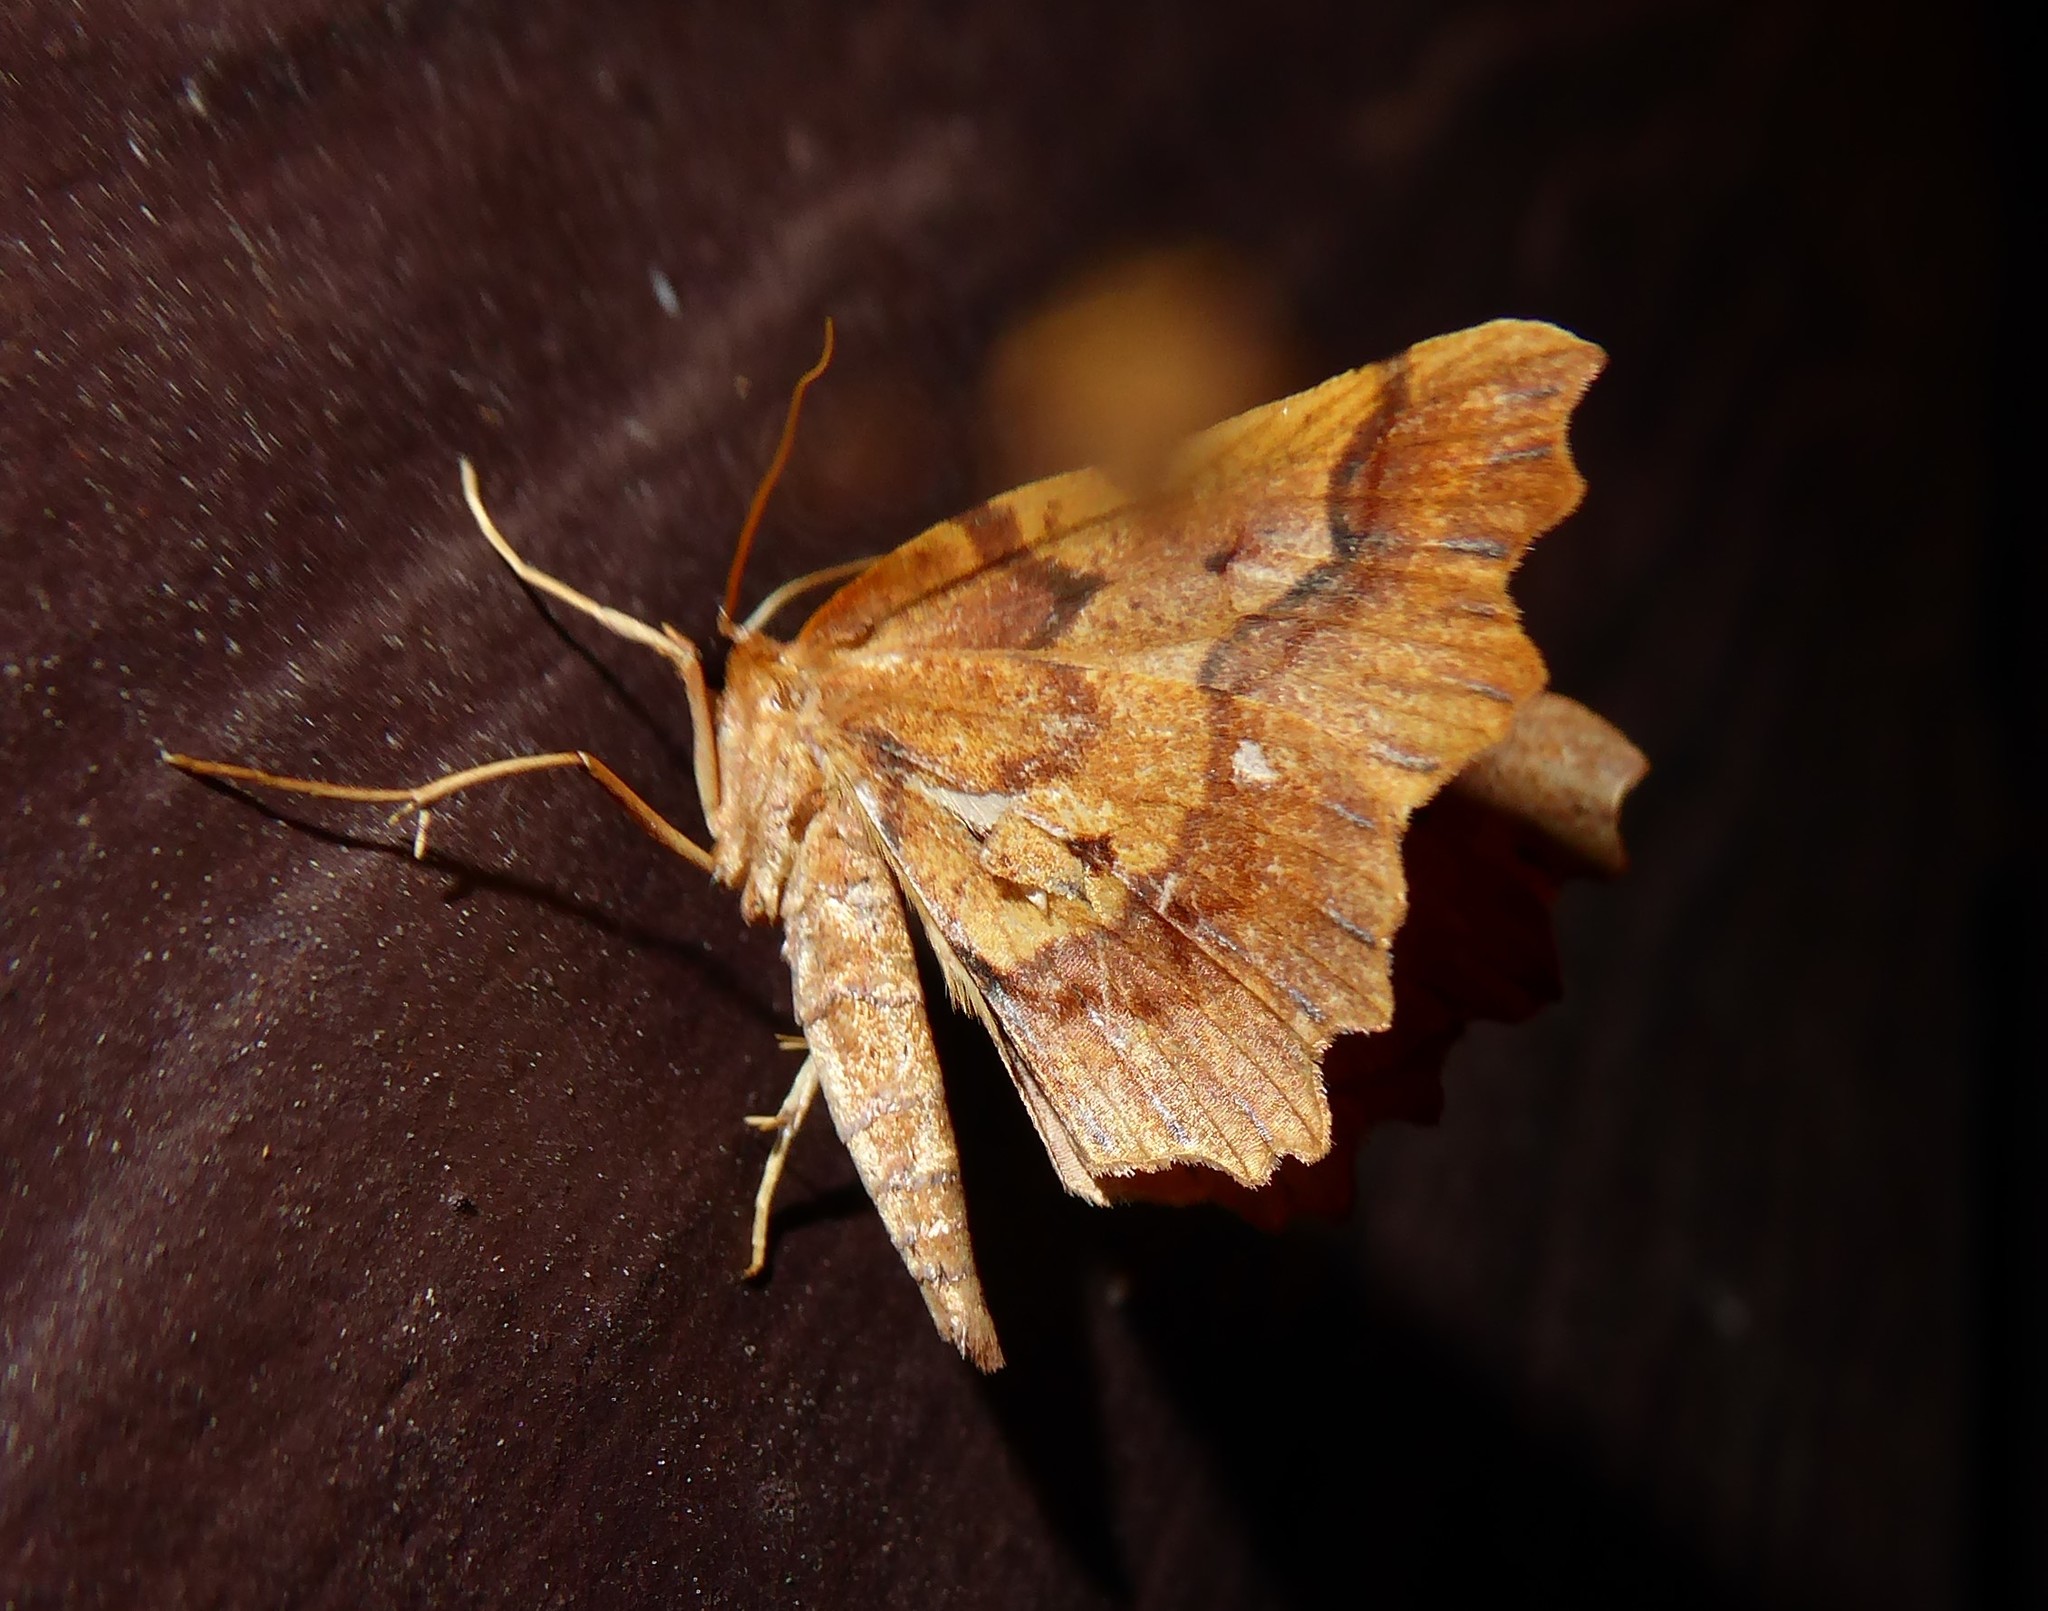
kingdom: Animalia
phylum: Arthropoda
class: Insecta
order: Lepidoptera
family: Geometridae
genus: Ischalis
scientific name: Ischalis fortinata
